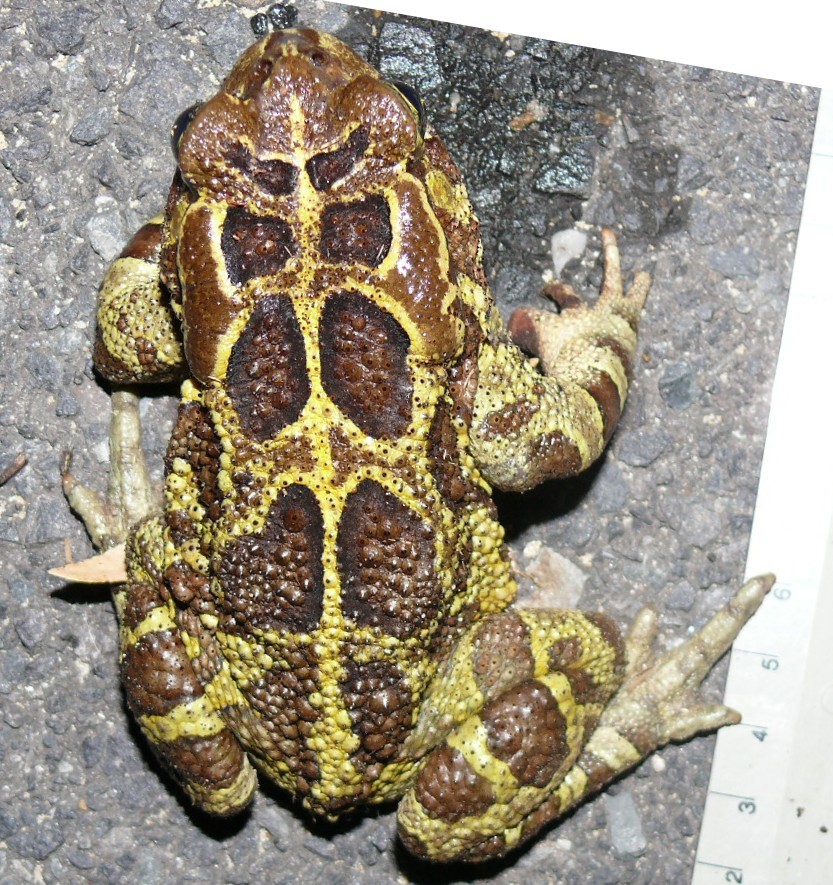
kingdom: Animalia
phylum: Chordata
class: Amphibia
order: Anura
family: Bufonidae
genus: Sclerophrys
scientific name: Sclerophrys pantherina
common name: Panther toad
